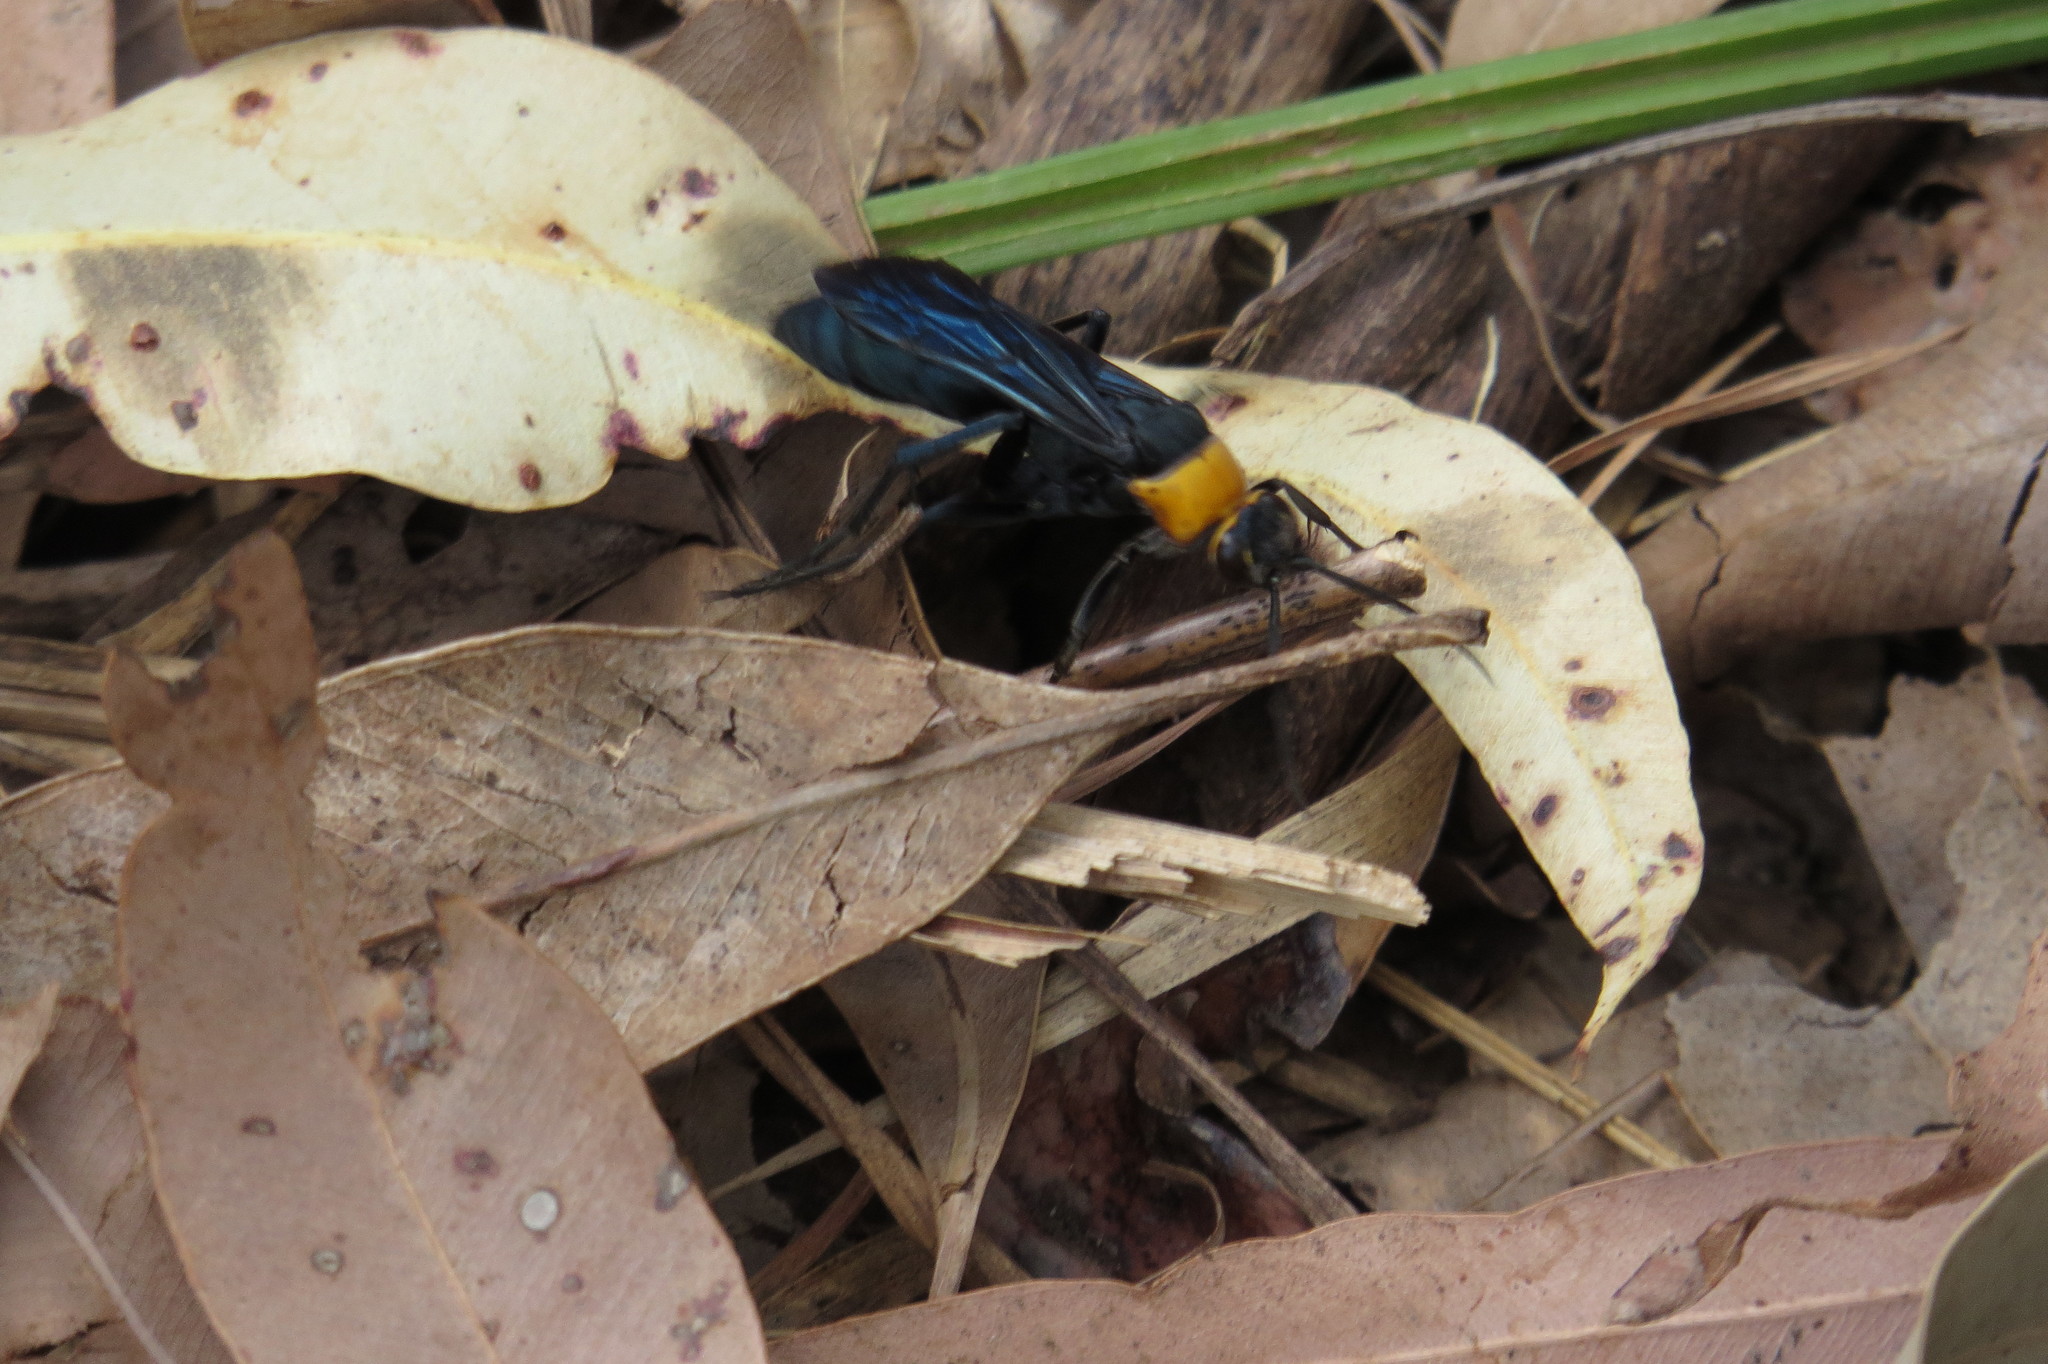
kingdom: Animalia
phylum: Arthropoda
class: Insecta
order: Hymenoptera
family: Pompilidae
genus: Ferreola
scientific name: Ferreola handschini
